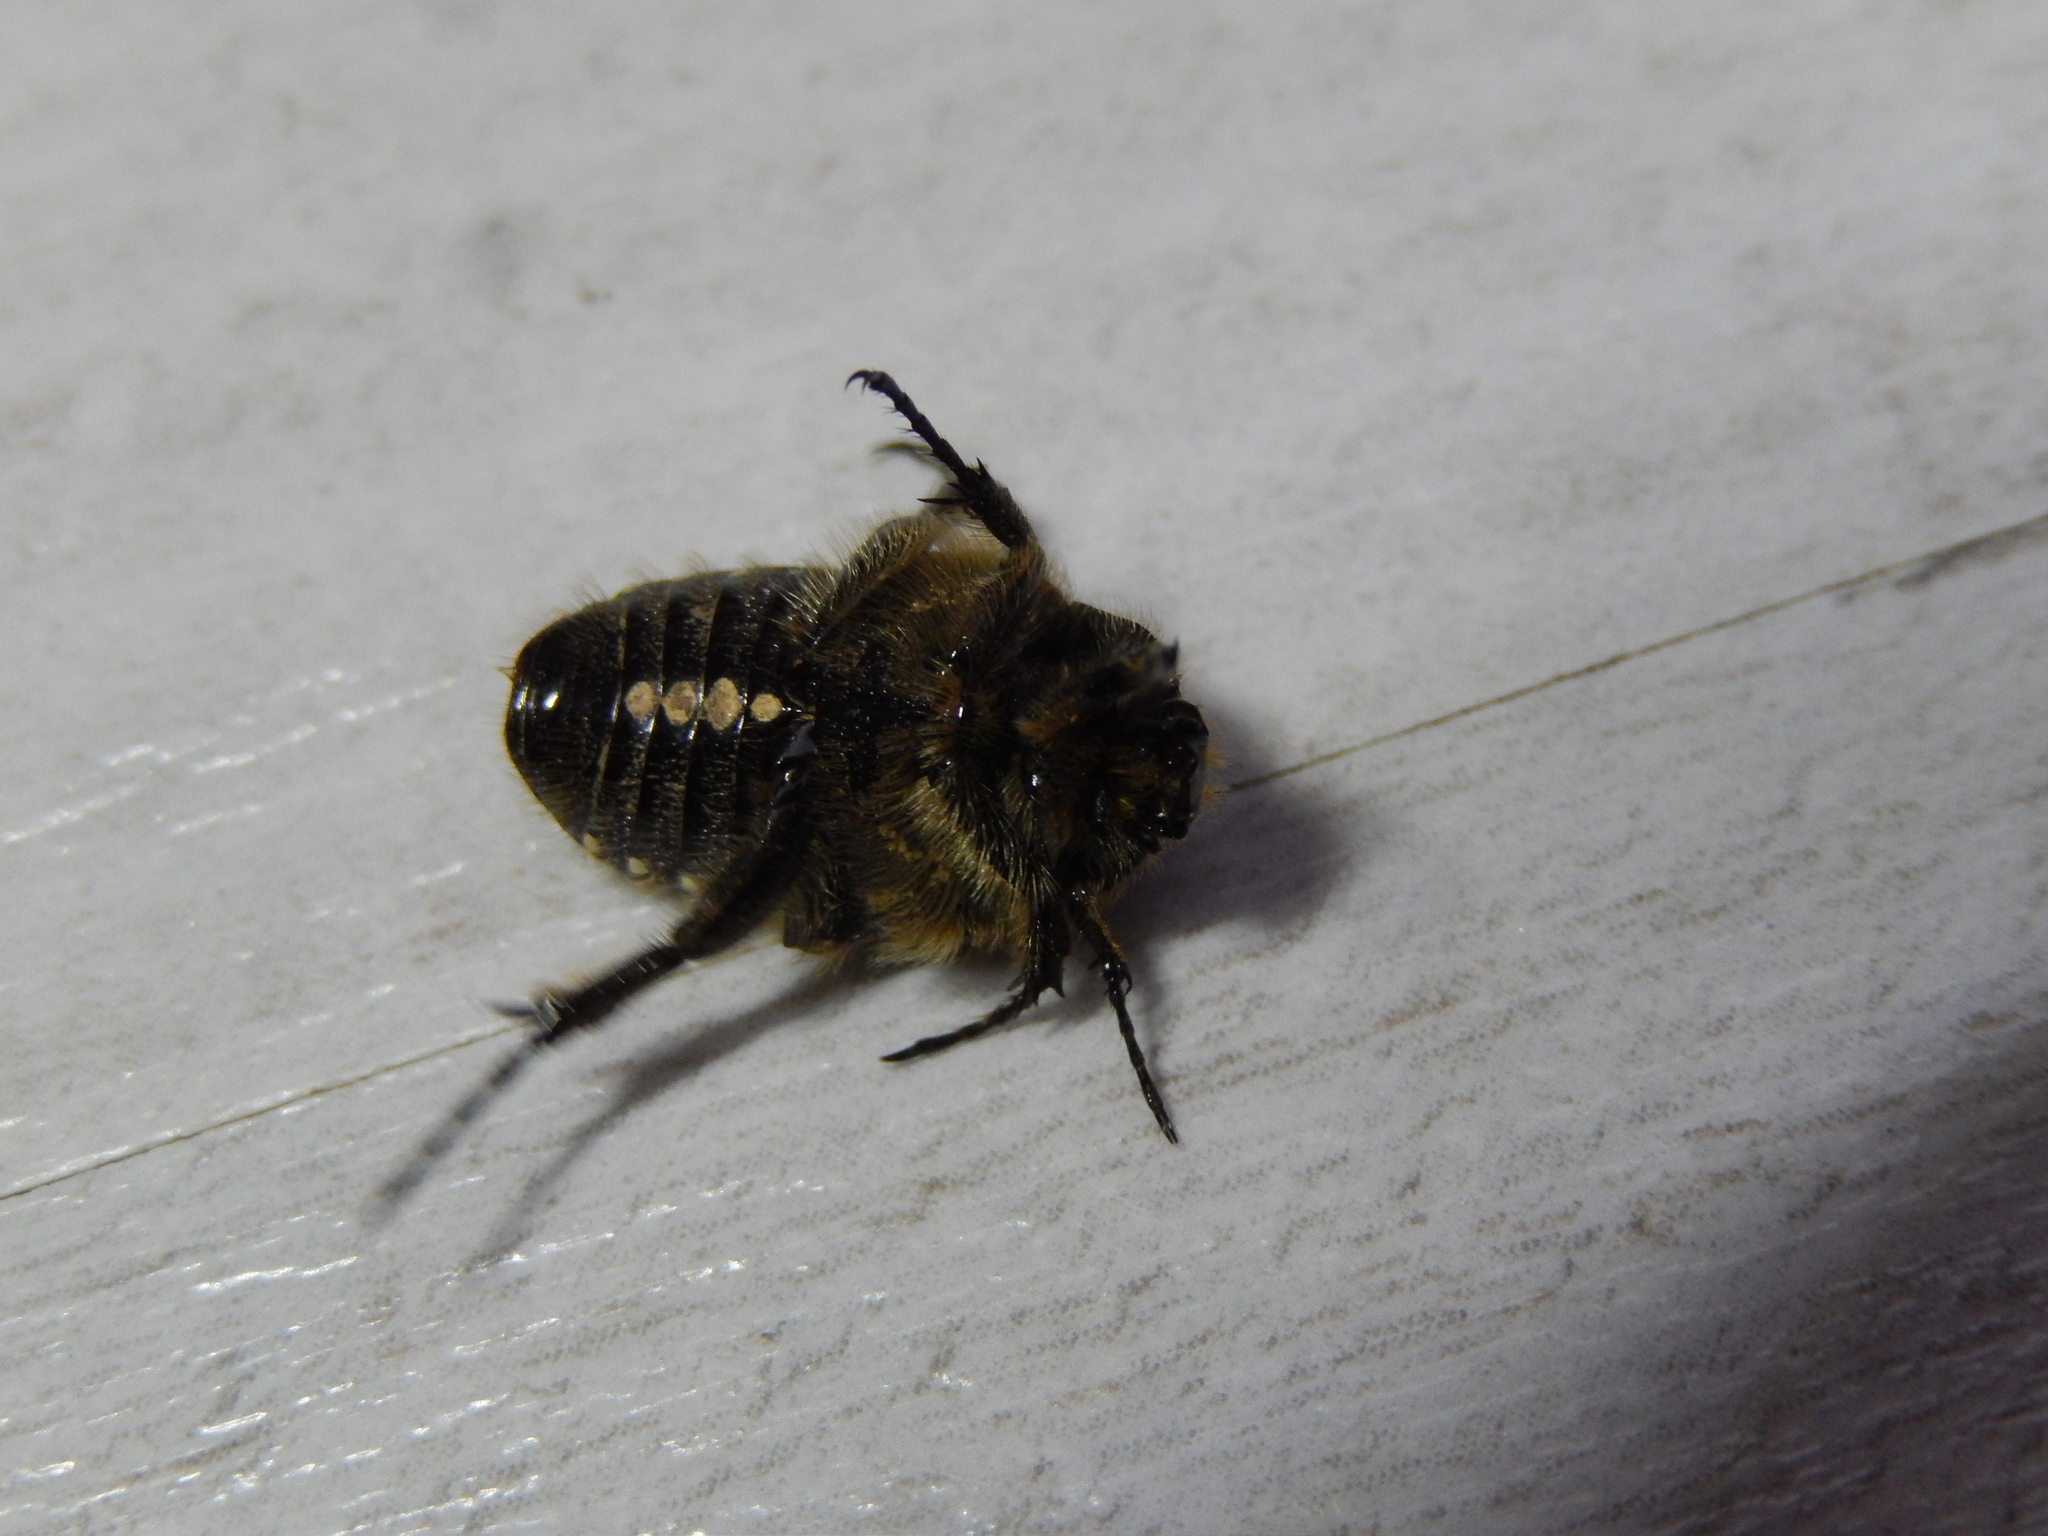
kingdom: Animalia
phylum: Arthropoda
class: Insecta
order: Coleoptera
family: Scarabaeidae
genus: Oxythyrea
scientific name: Oxythyrea funesta
